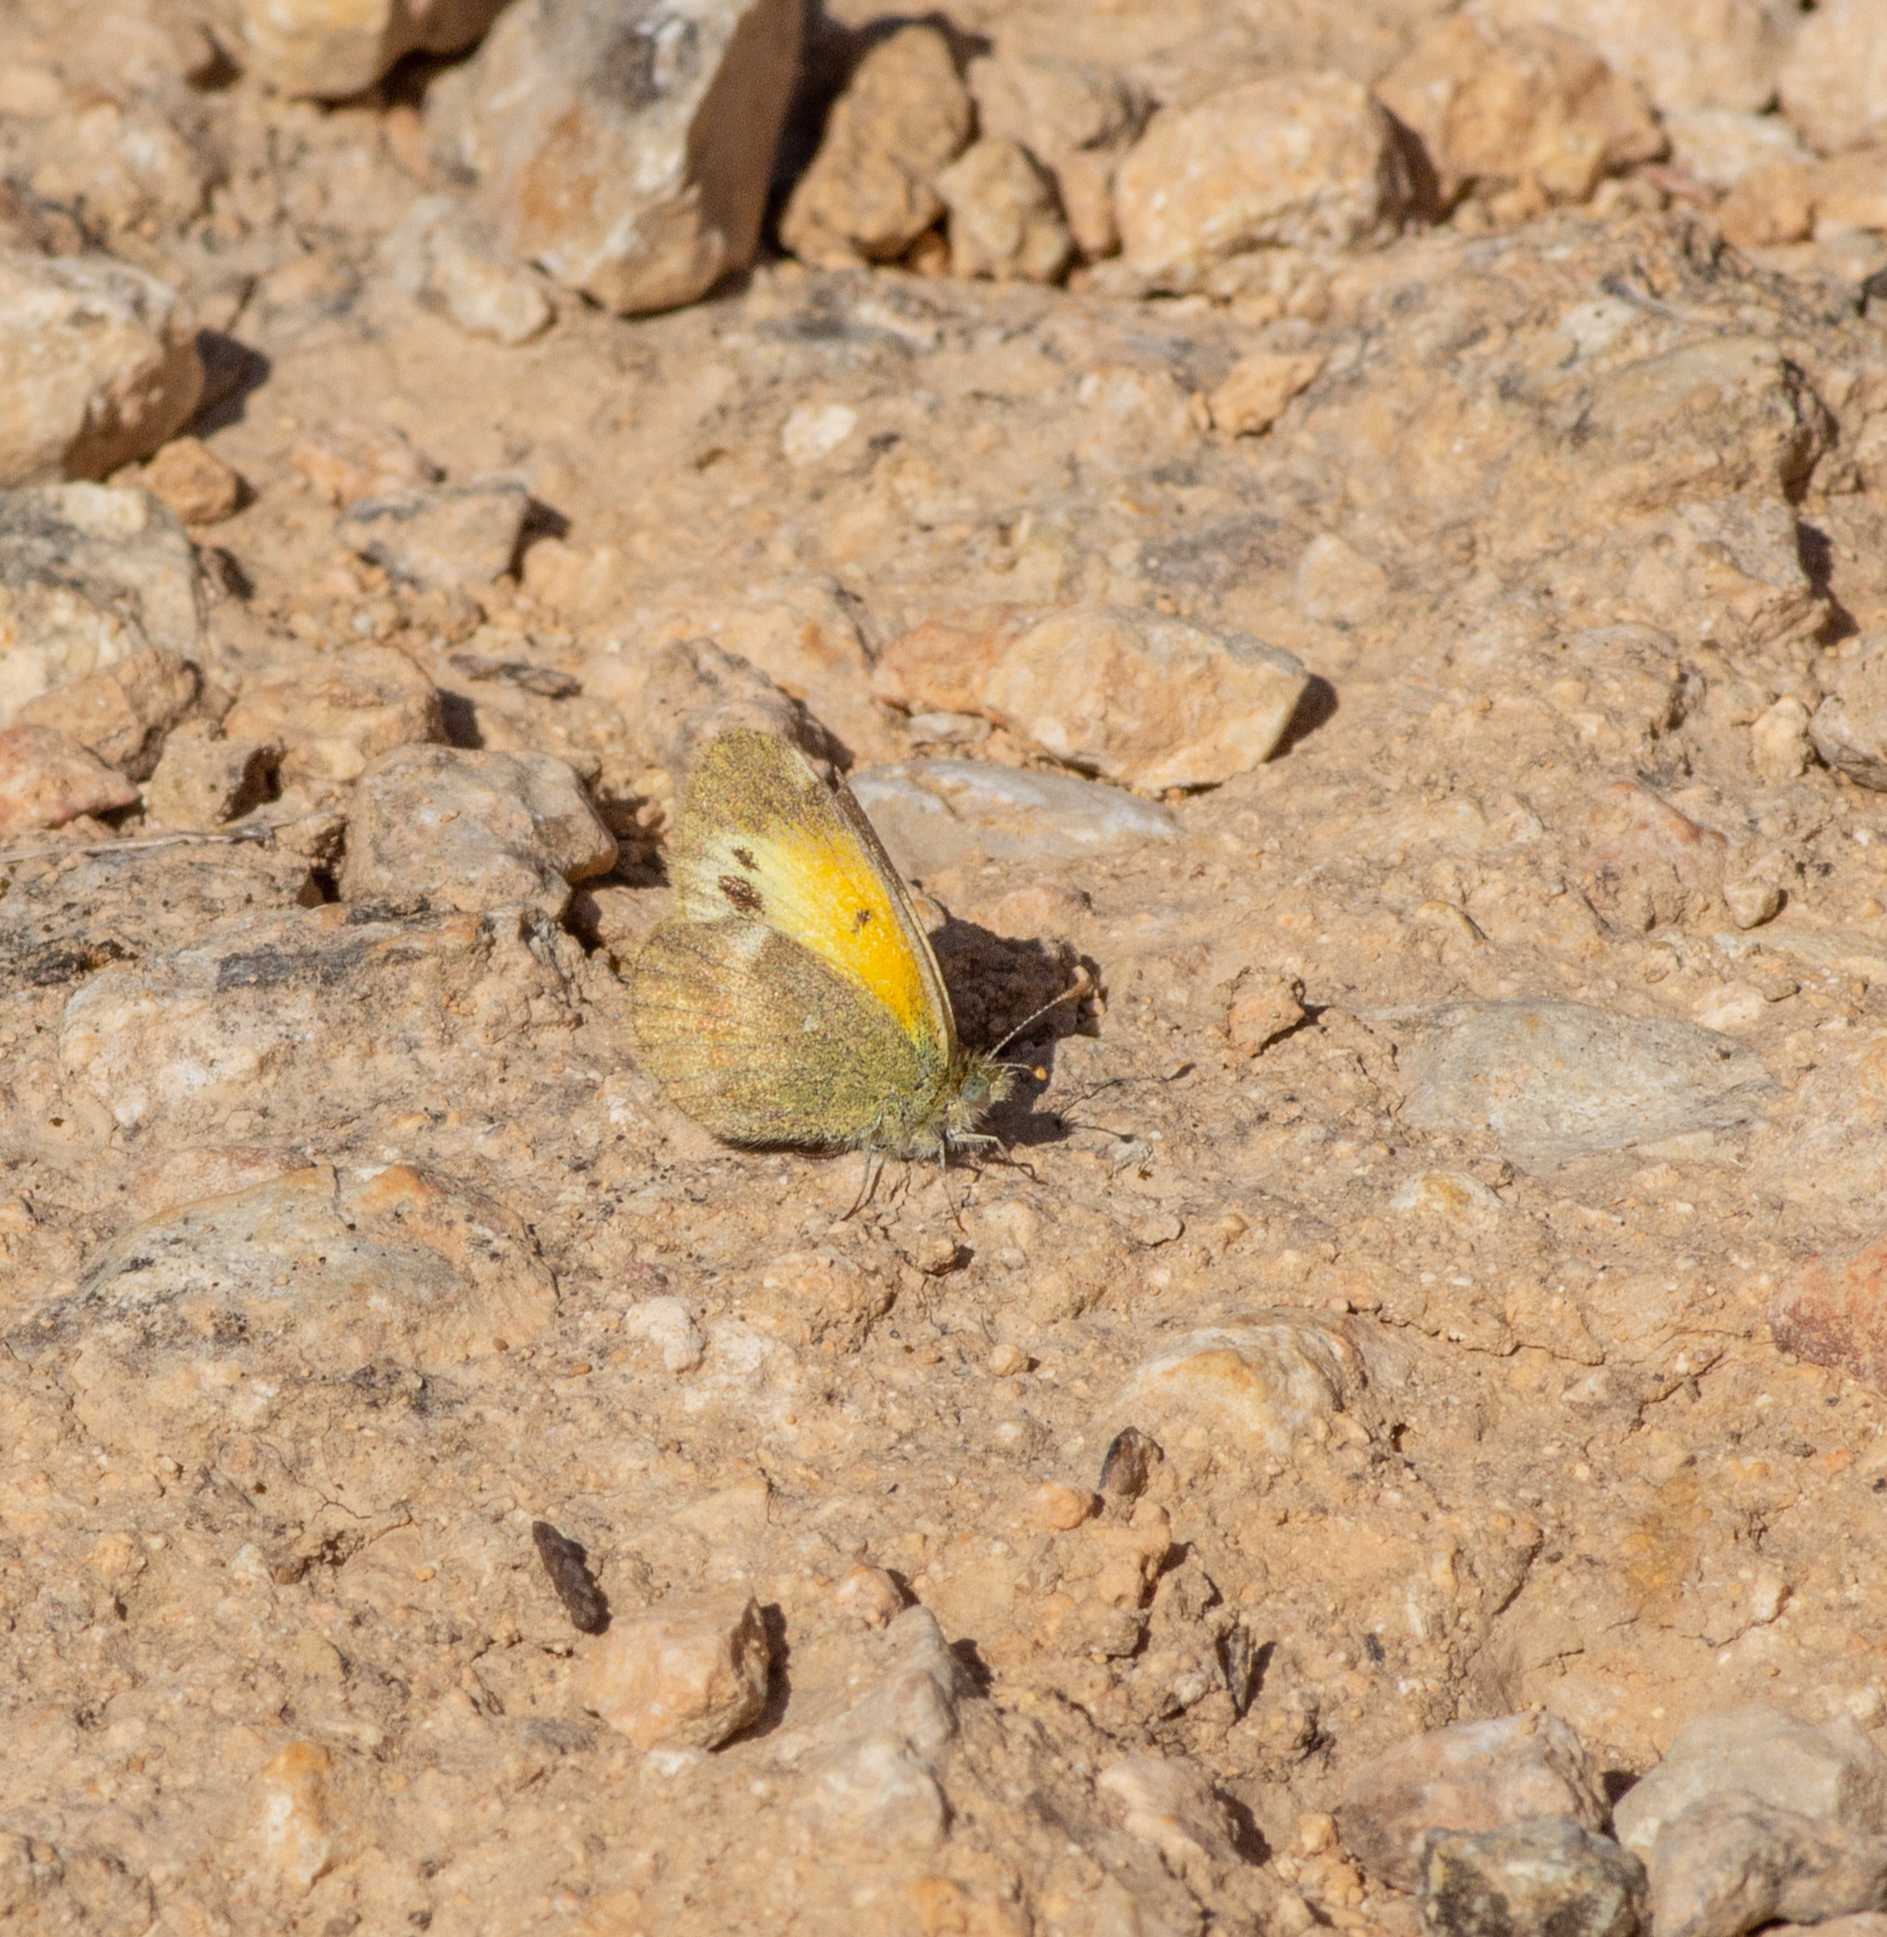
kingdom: Animalia
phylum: Arthropoda
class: Insecta
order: Lepidoptera
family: Pieridae
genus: Nathalis
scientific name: Nathalis iole
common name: Dainty sulphur
